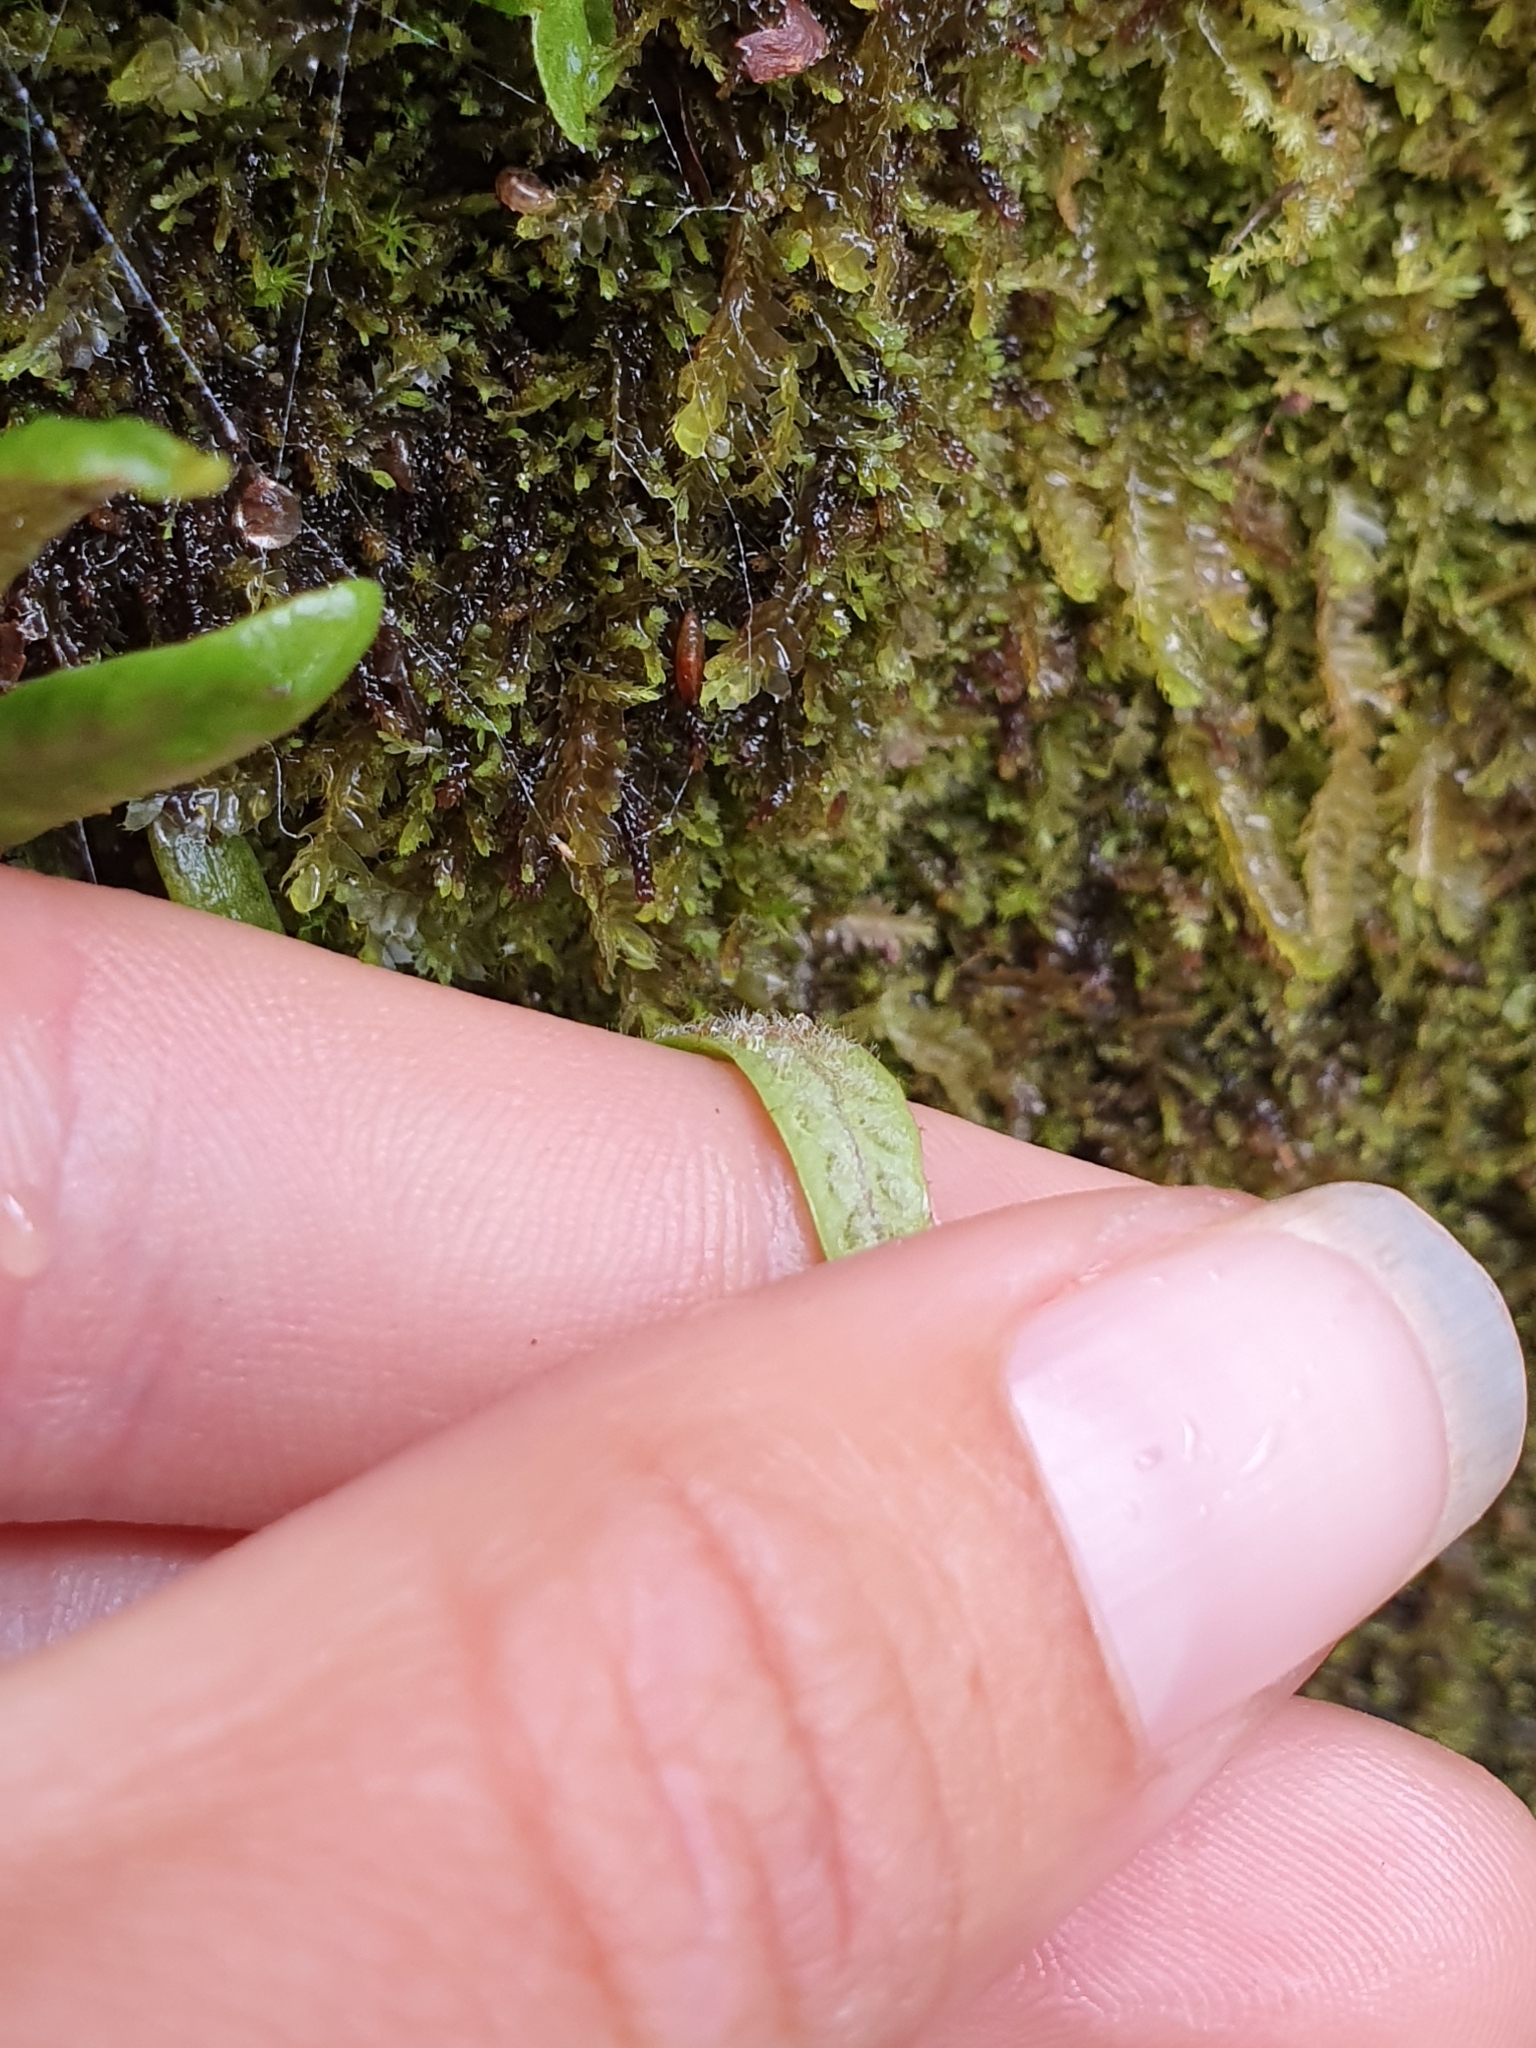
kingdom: Plantae
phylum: Tracheophyta
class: Polypodiopsida
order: Polypodiales
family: Polypodiaceae
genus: Notogrammitis
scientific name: Notogrammitis patagonica
